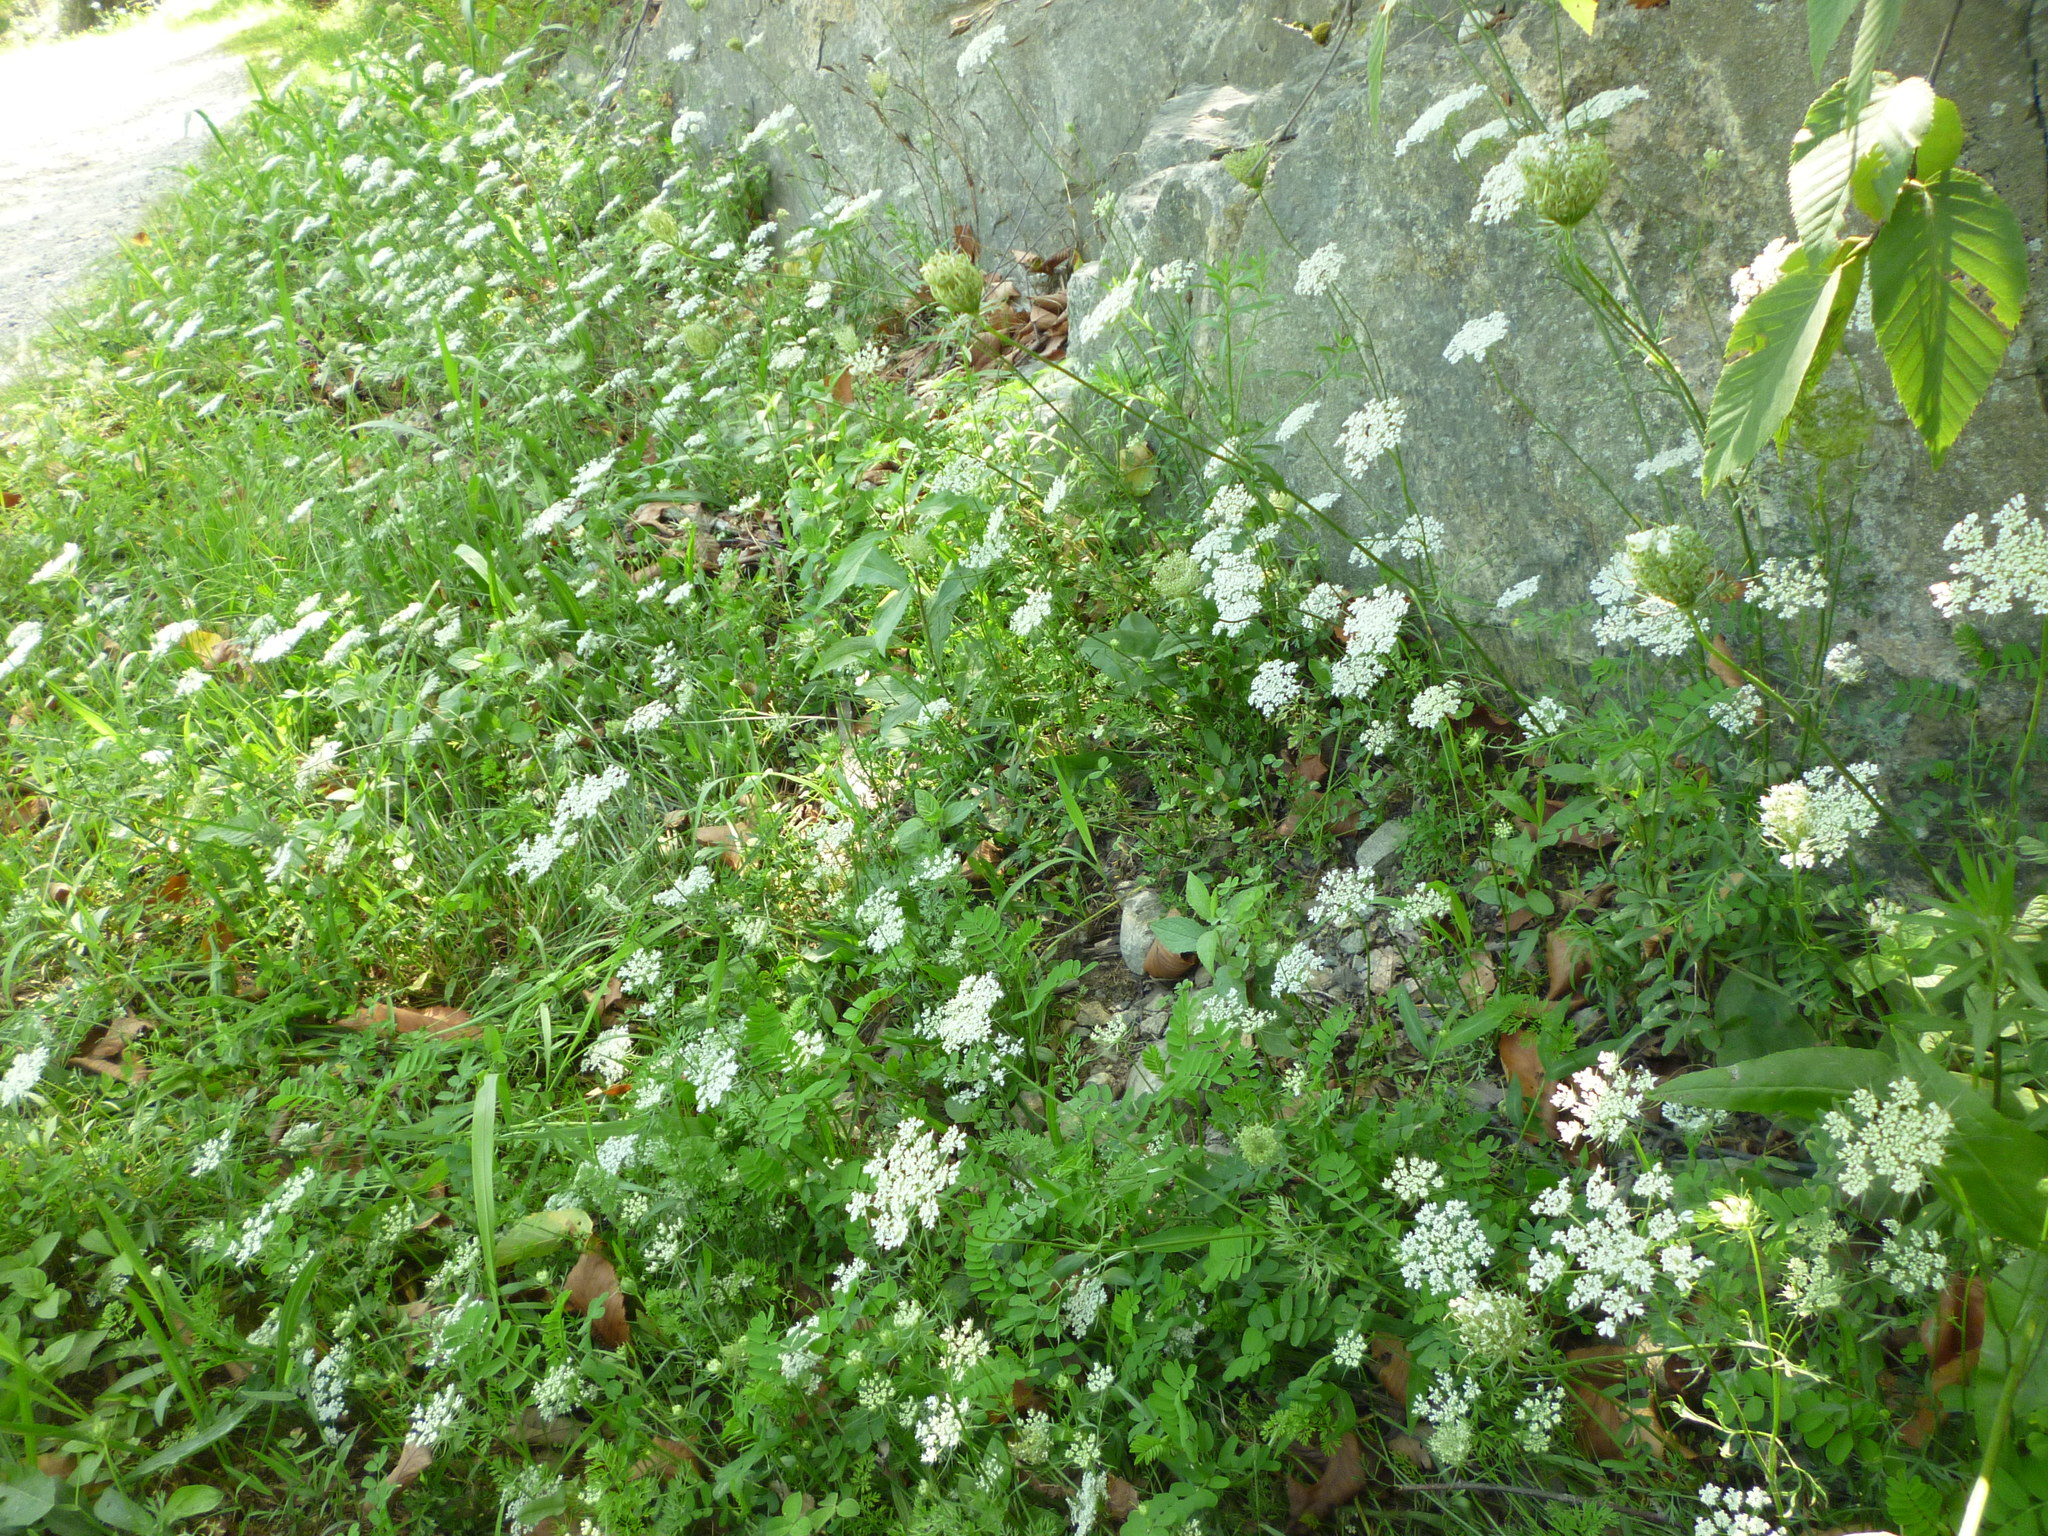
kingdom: Plantae
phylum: Tracheophyta
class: Magnoliopsida
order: Apiales
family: Apiaceae
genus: Daucus
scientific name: Daucus carota
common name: Wild carrot
